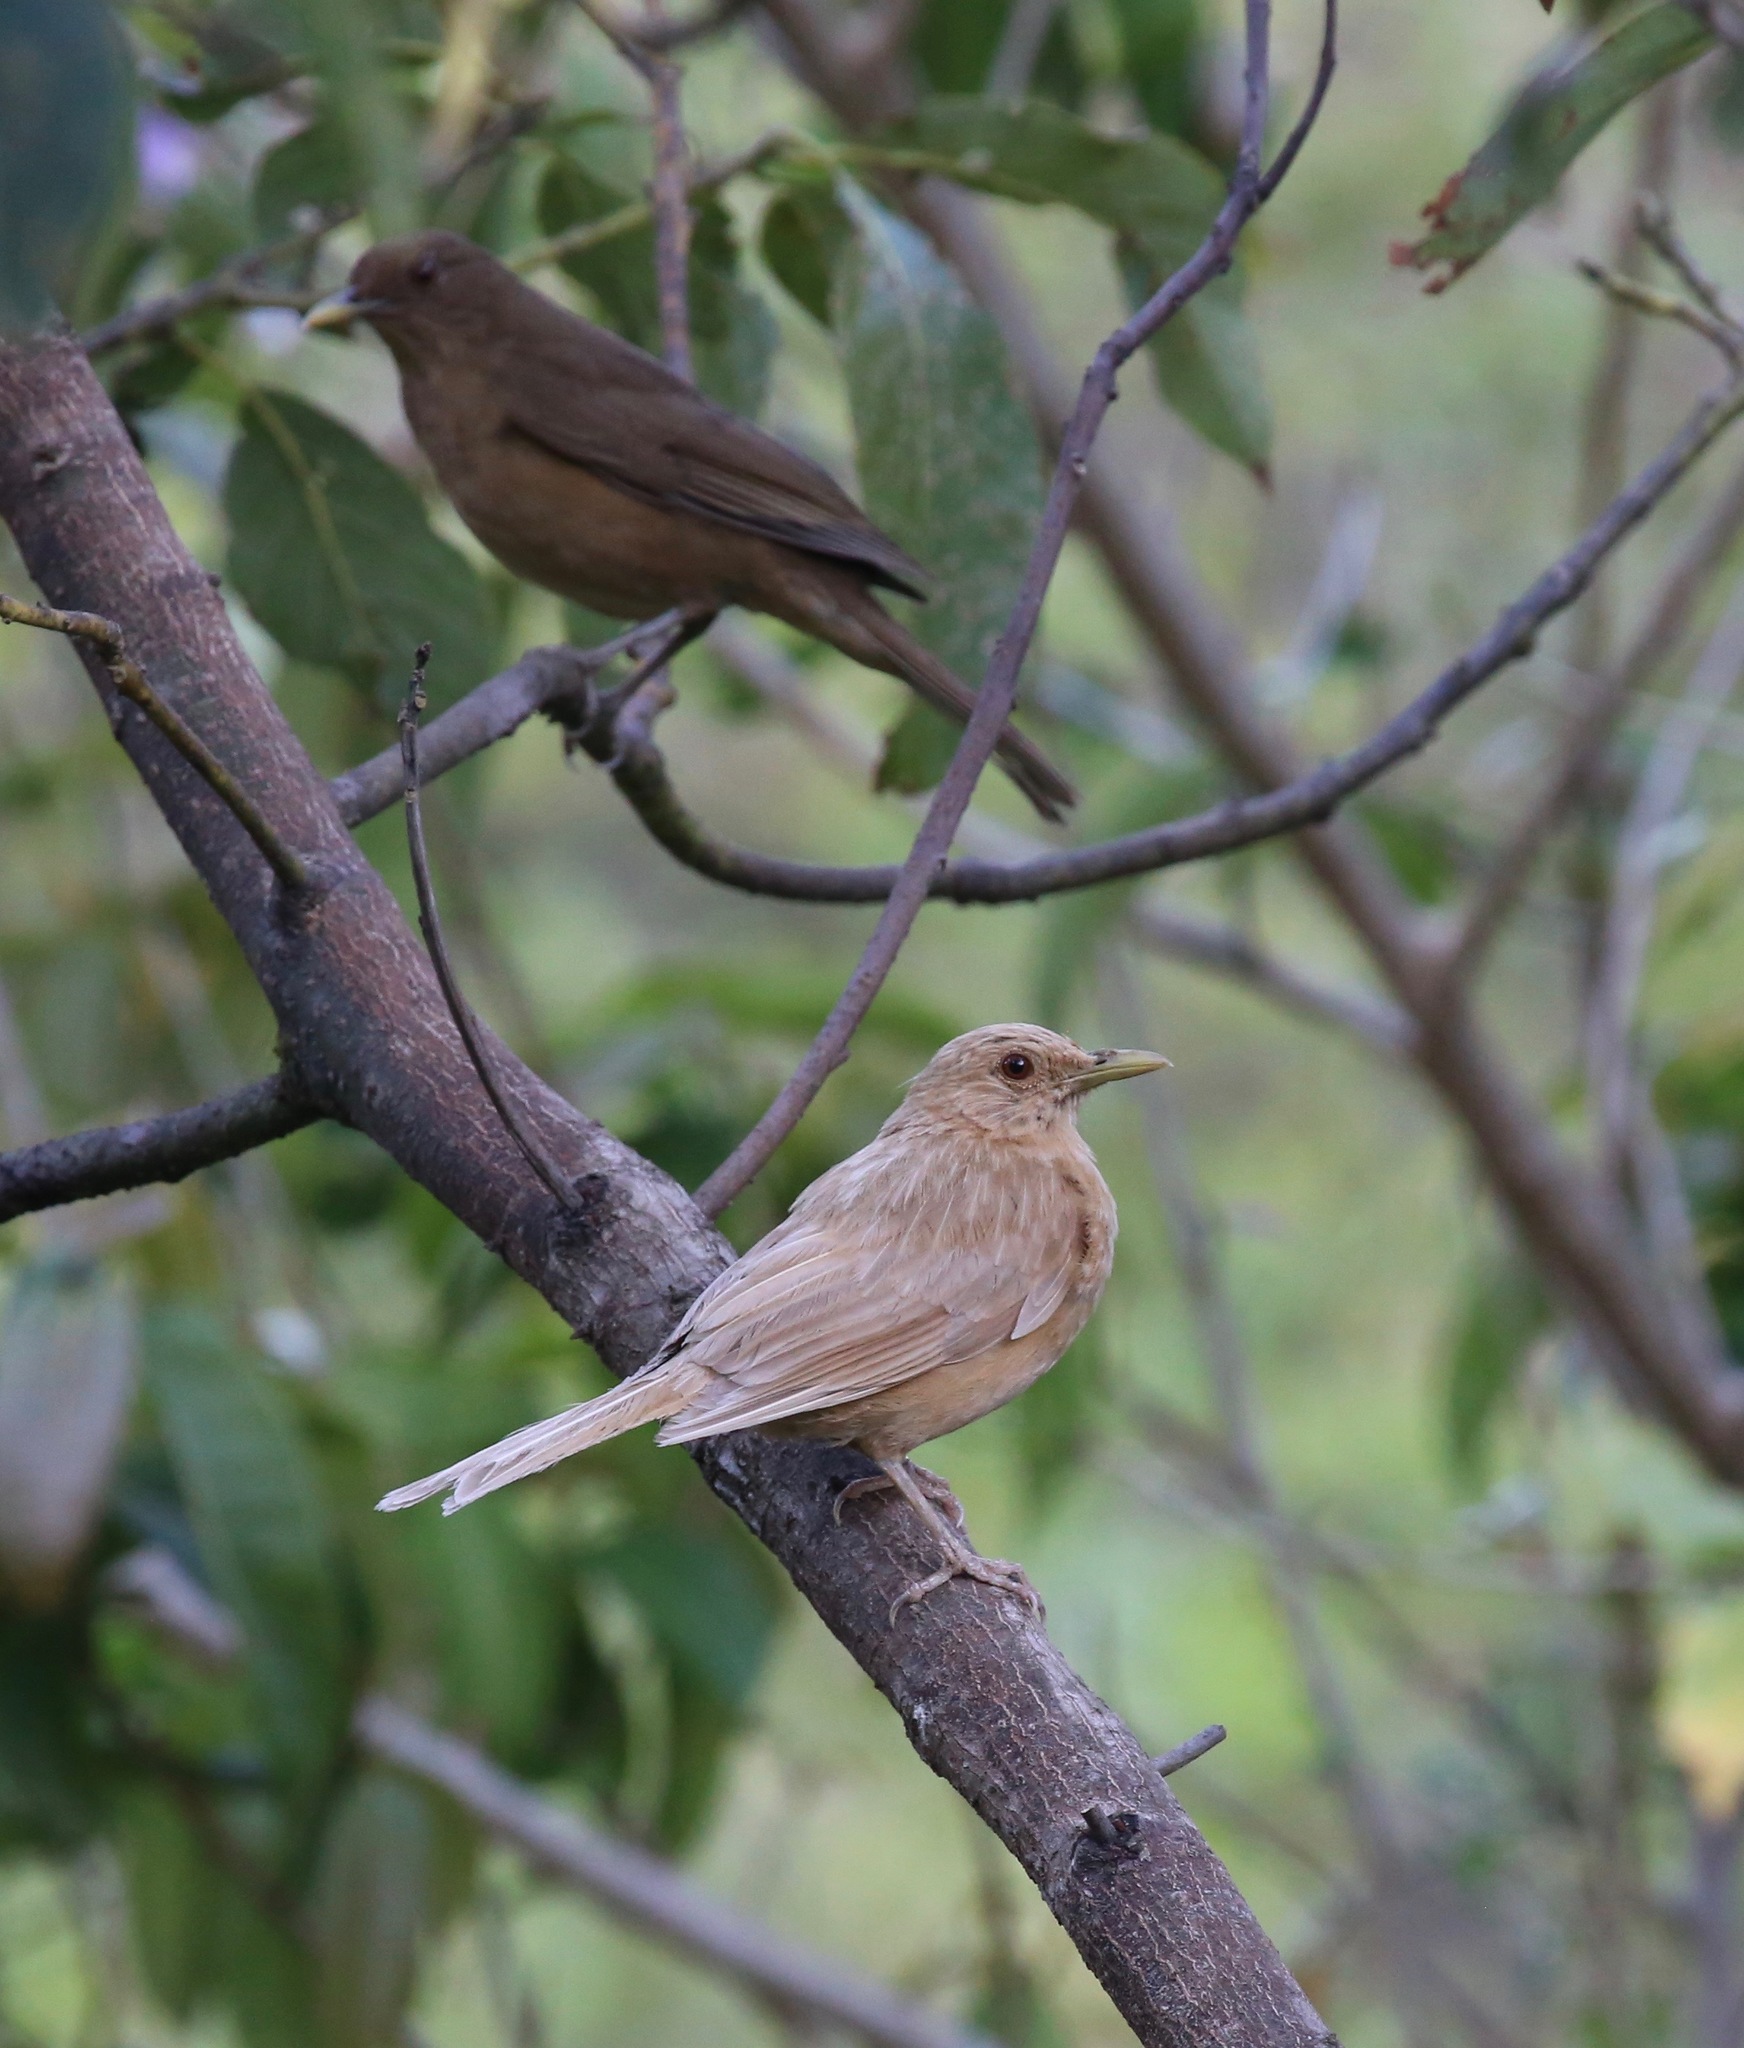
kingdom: Animalia
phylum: Chordata
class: Aves
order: Passeriformes
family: Turdidae
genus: Turdus
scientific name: Turdus grayi
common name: Clay-colored thrush
